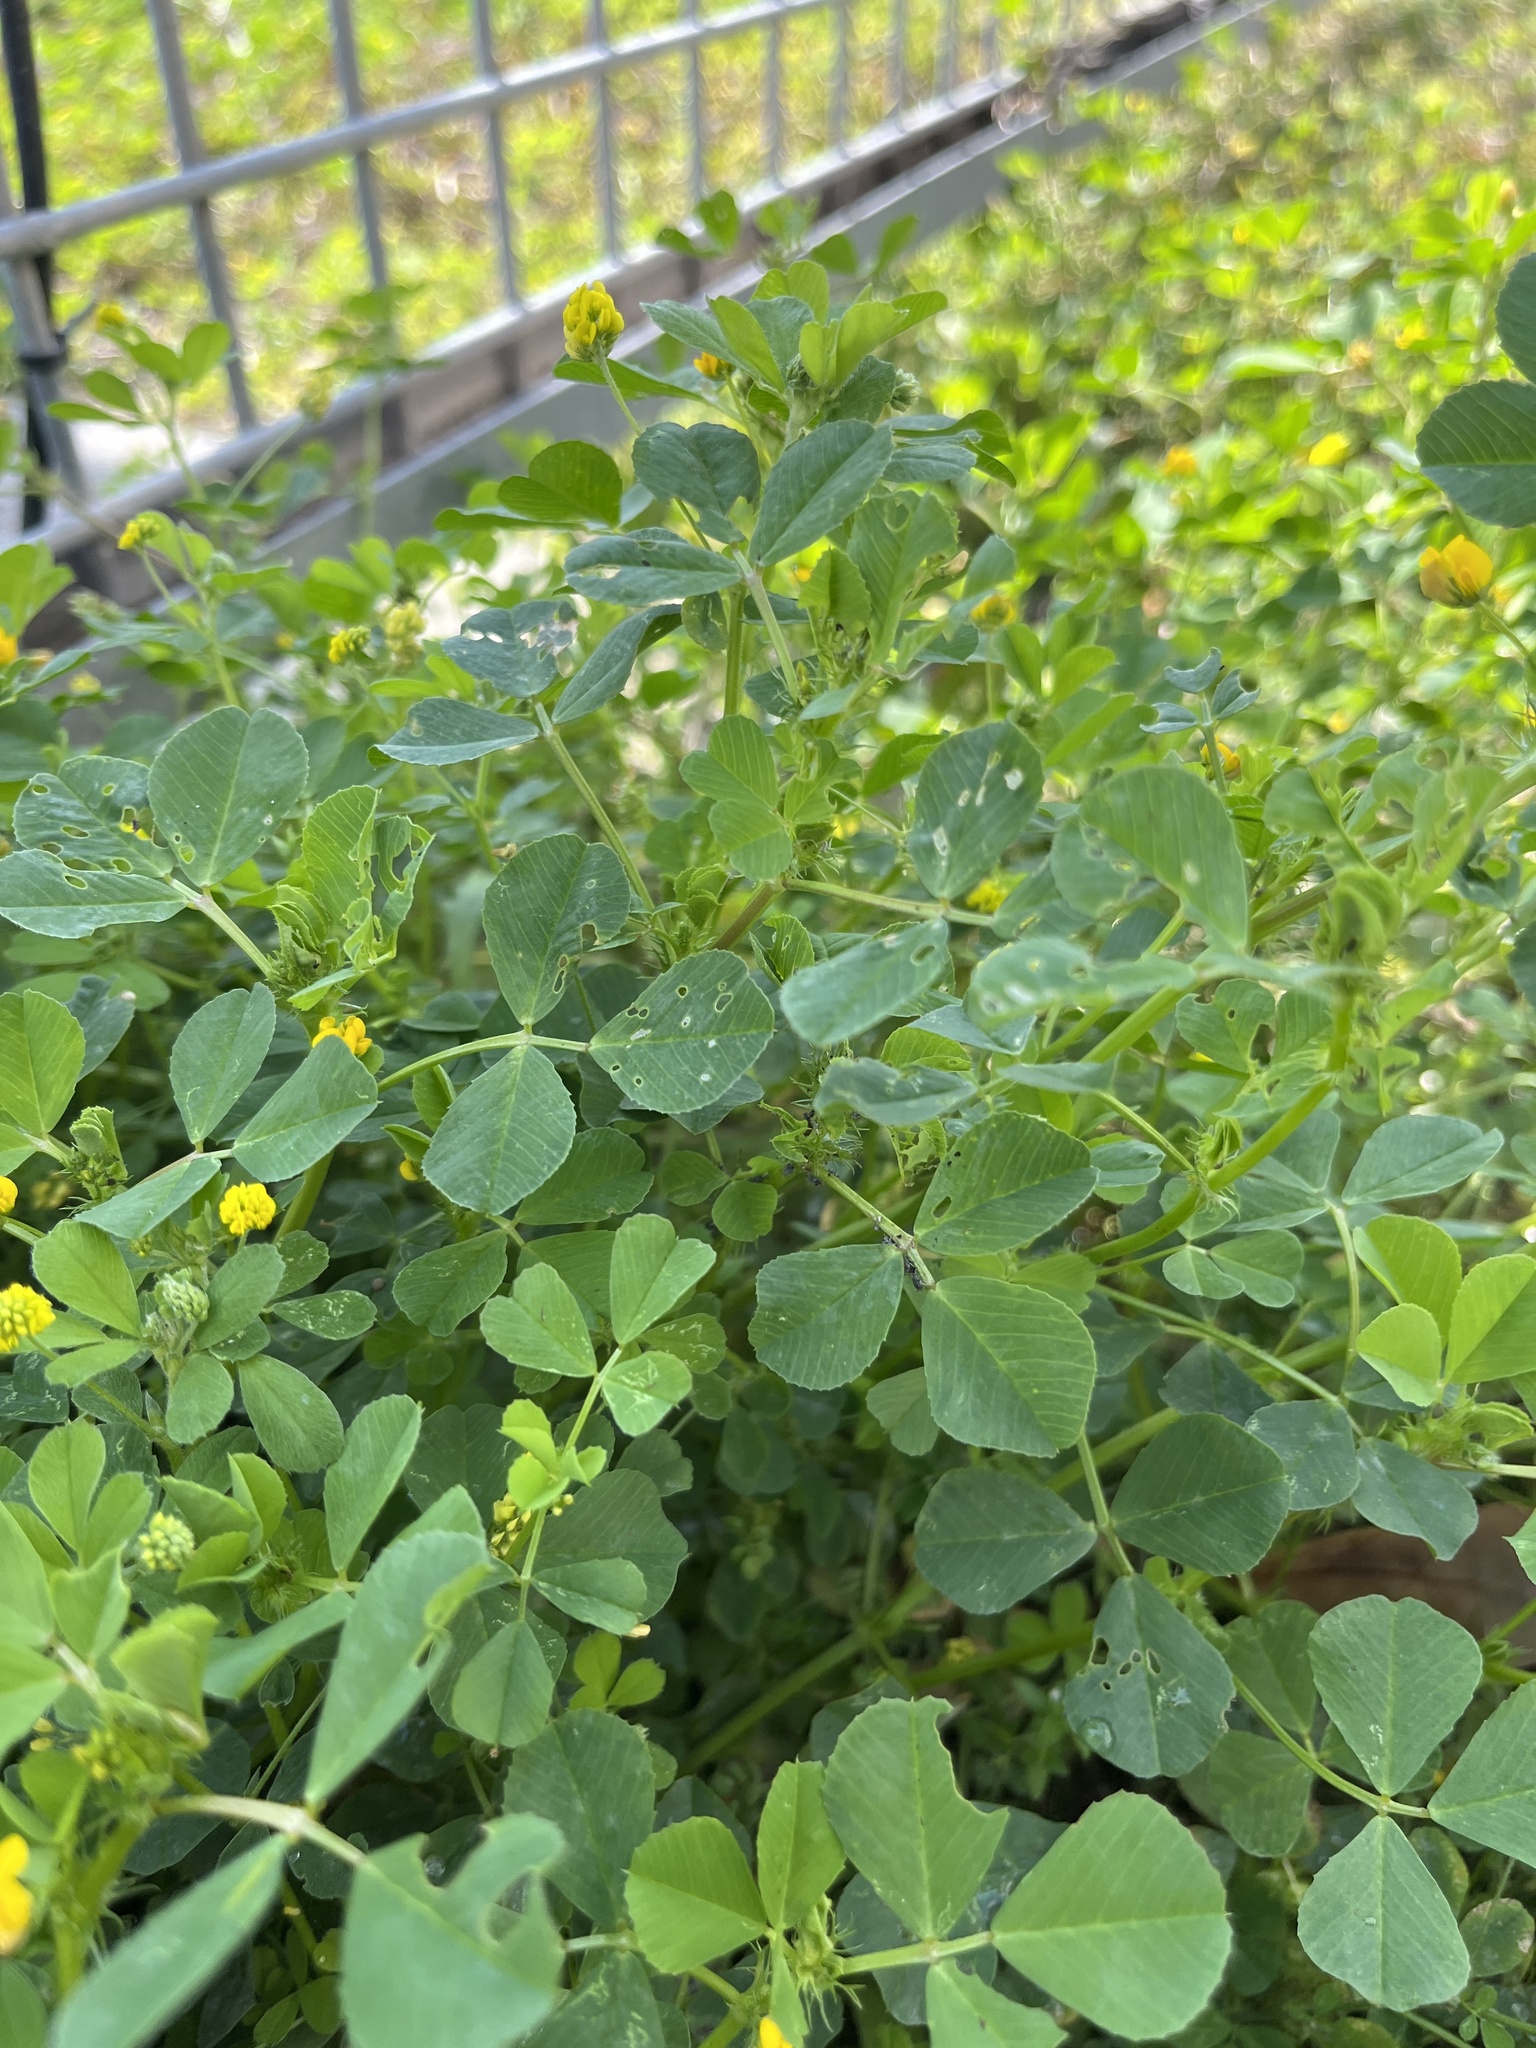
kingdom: Plantae
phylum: Tracheophyta
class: Magnoliopsida
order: Fabales
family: Fabaceae
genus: Medicago
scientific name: Medicago polymorpha
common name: Burclover
